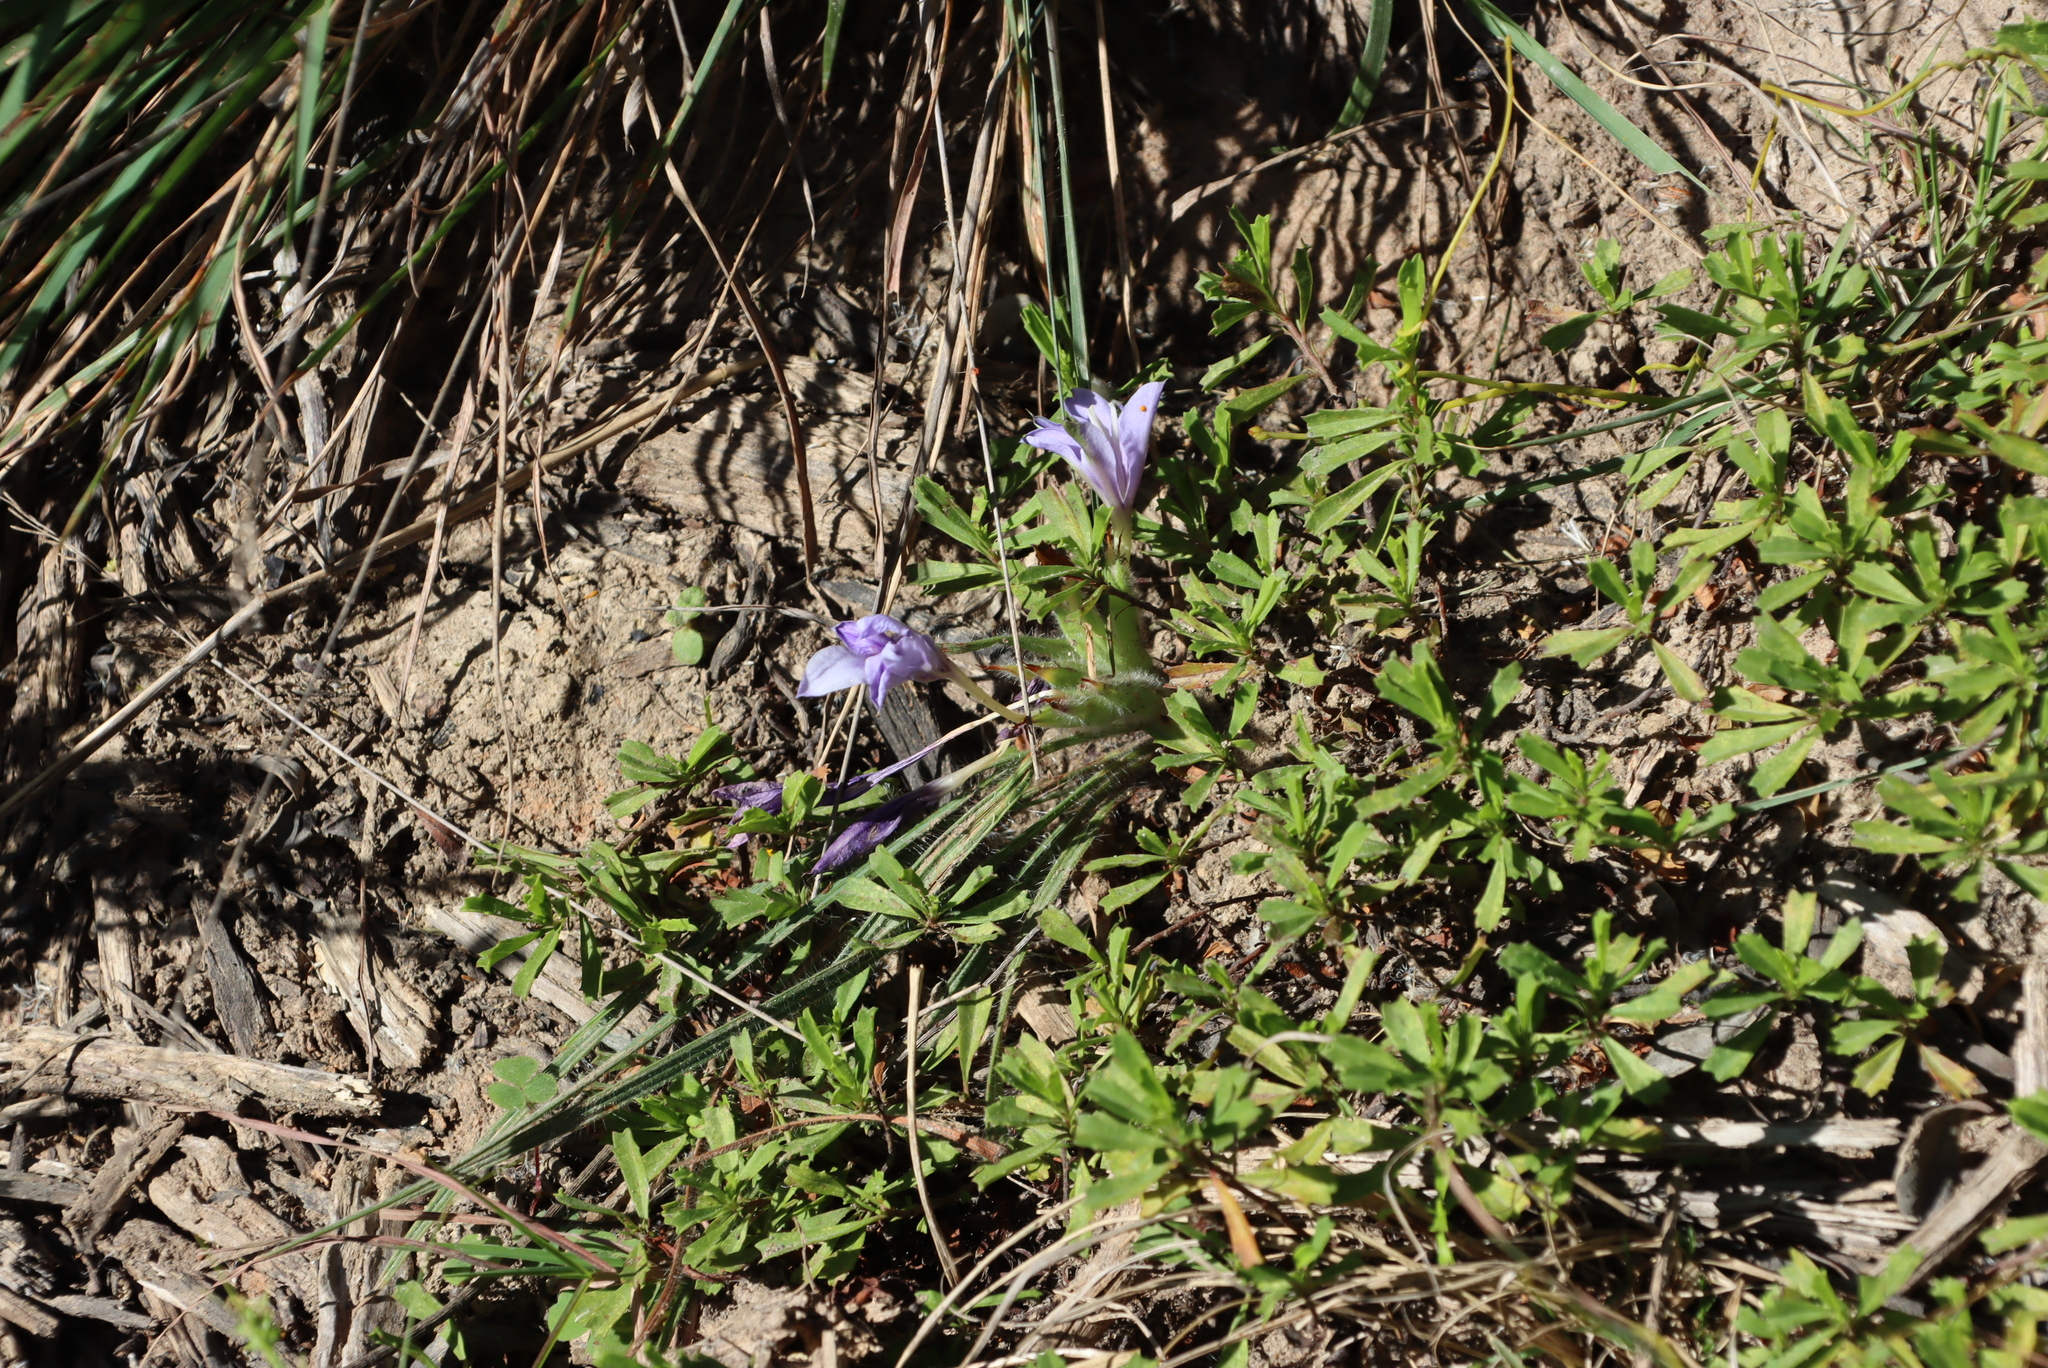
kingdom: Plantae
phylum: Tracheophyta
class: Liliopsida
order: Asparagales
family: Iridaceae
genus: Babiana
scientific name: Babiana sambucina
